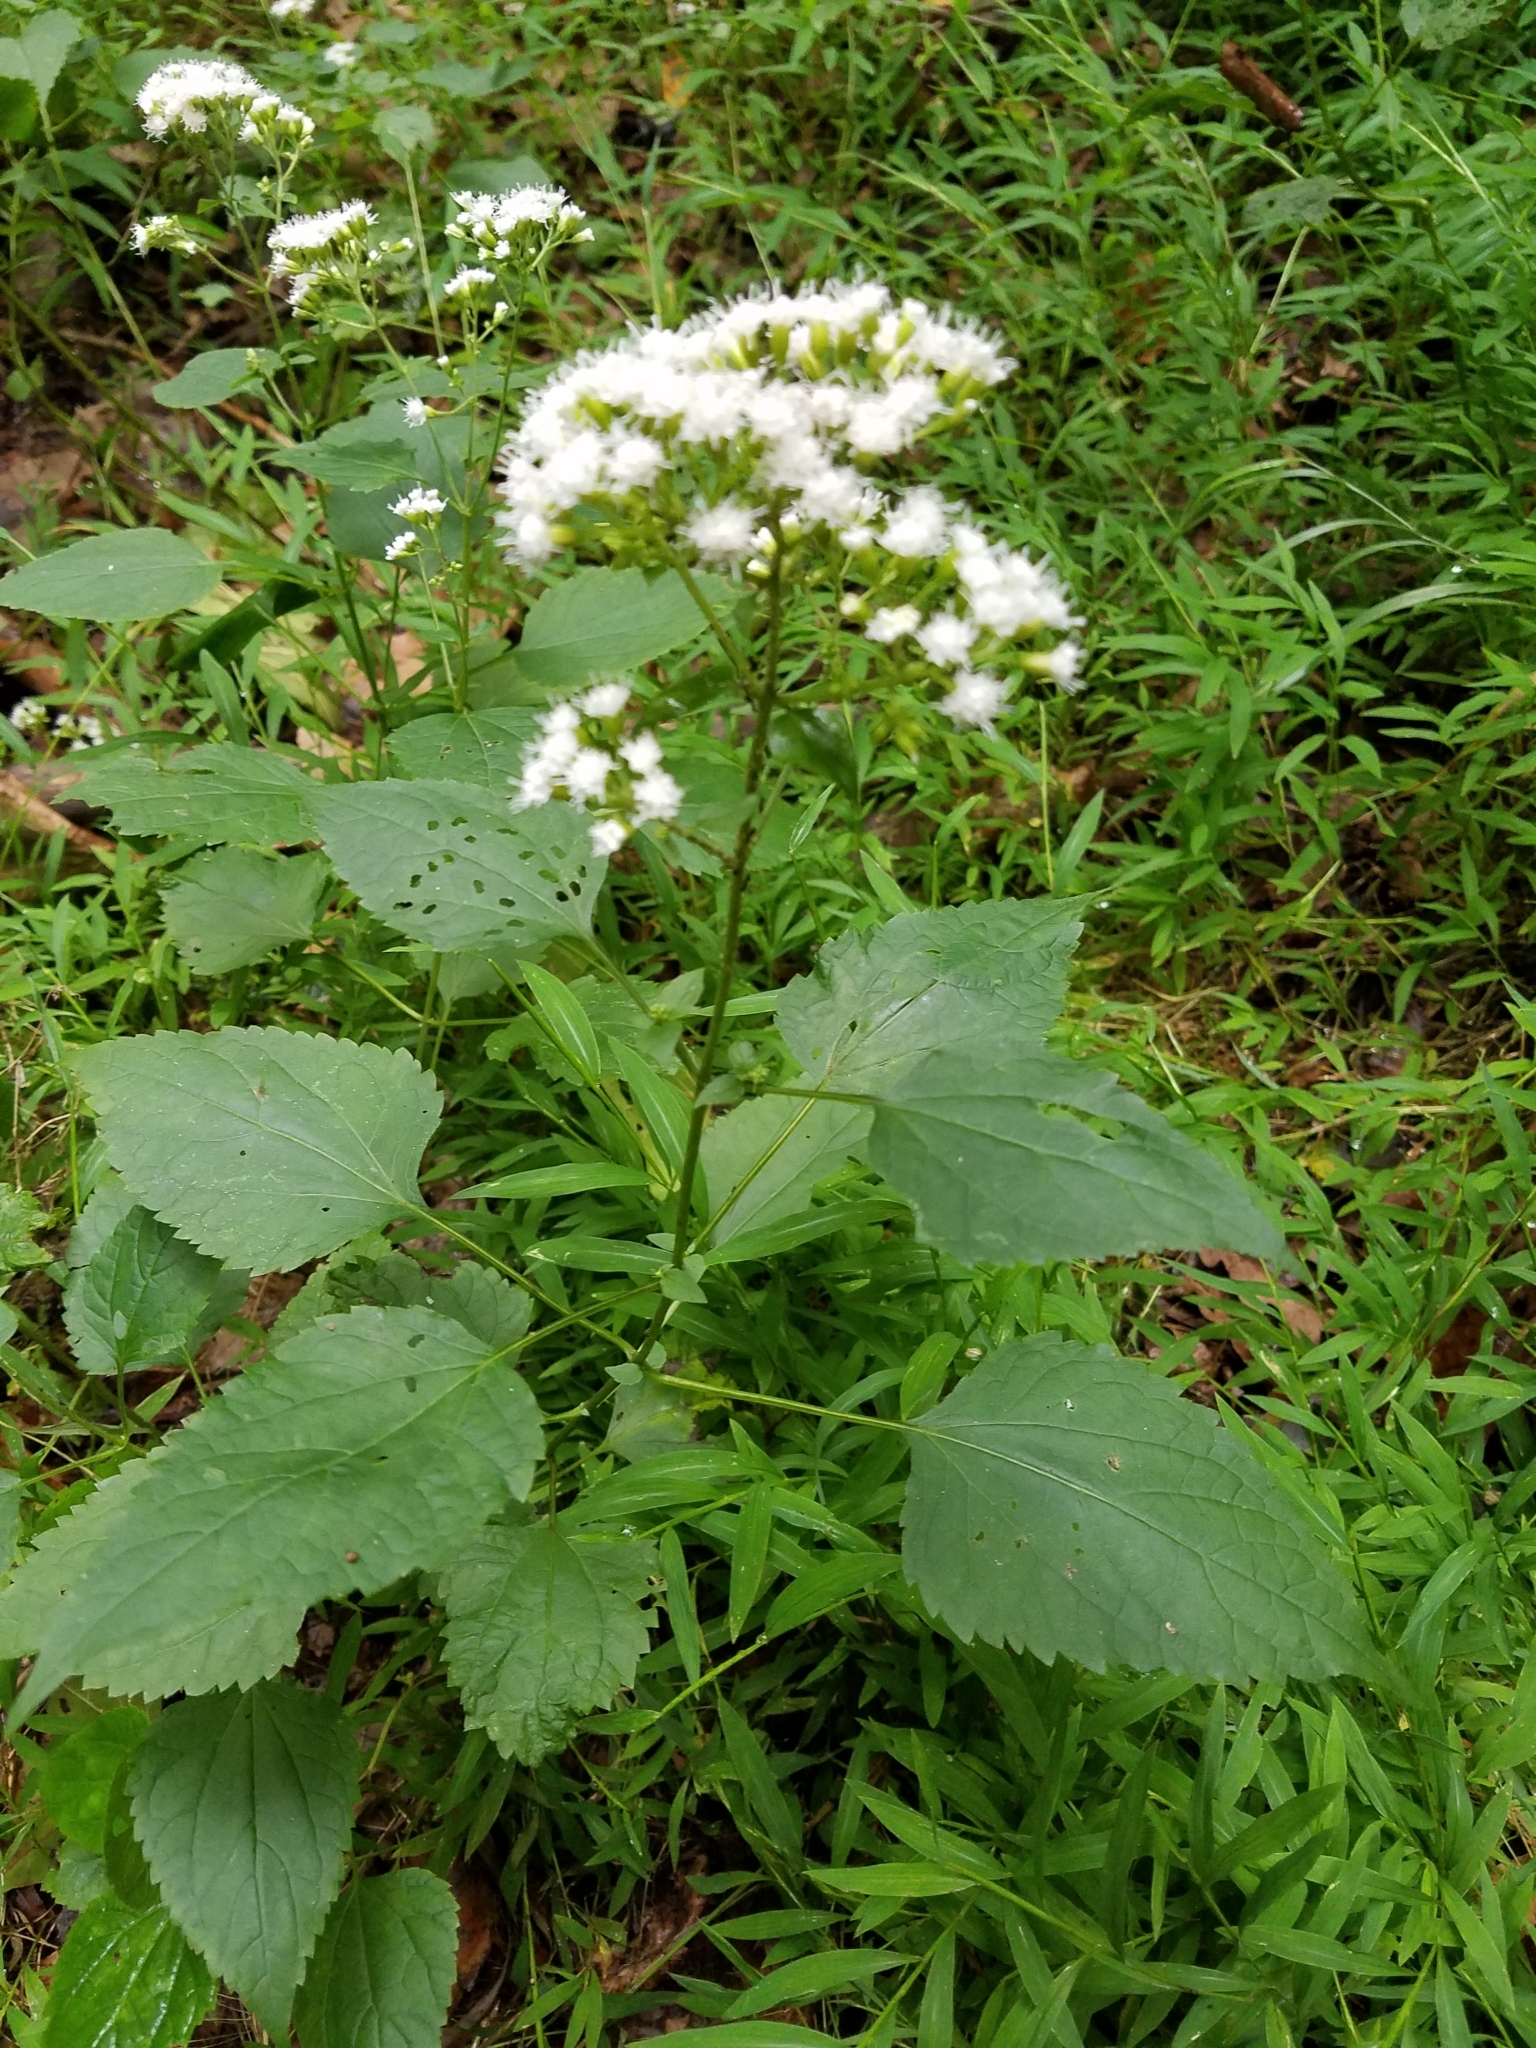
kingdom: Plantae
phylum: Tracheophyta
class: Magnoliopsida
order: Asterales
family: Asteraceae
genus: Ageratina
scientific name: Ageratina altissima
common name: White snakeroot
